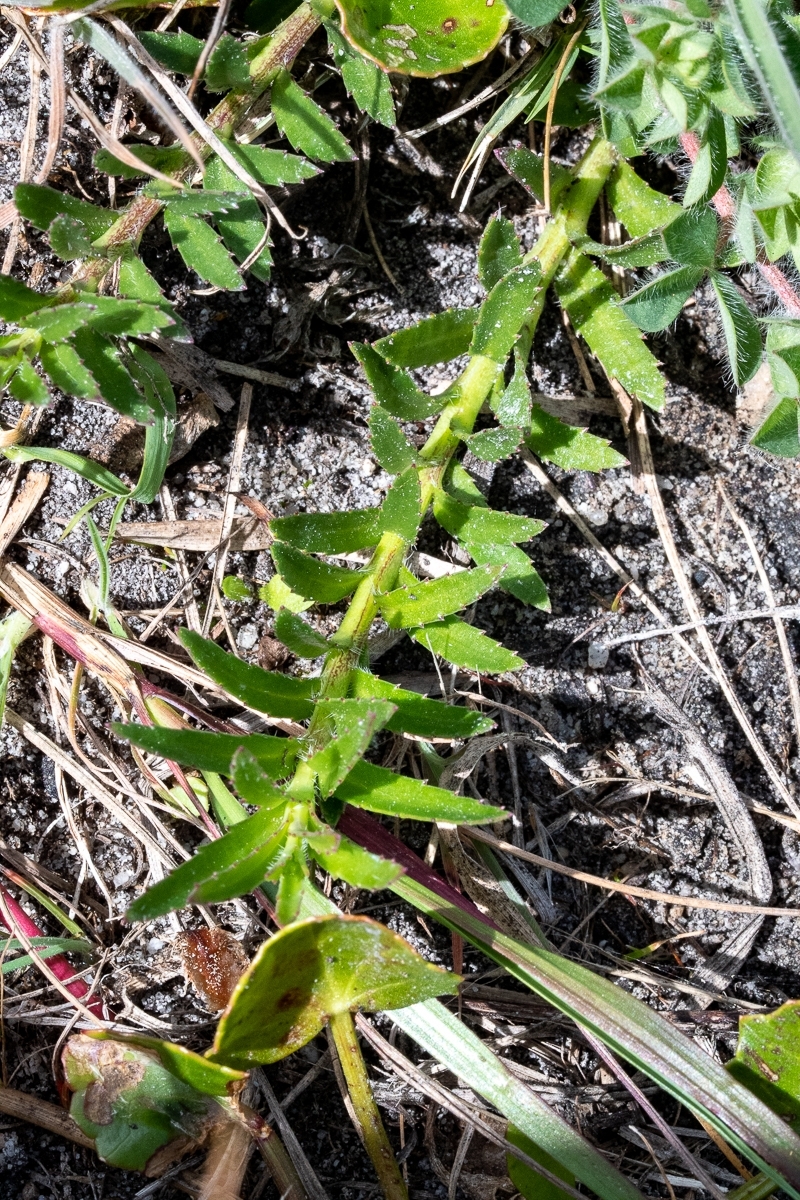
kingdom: Plantae
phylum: Tracheophyta
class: Magnoliopsida
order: Asterales
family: Campanulaceae
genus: Monopsis
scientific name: Monopsis lutea
